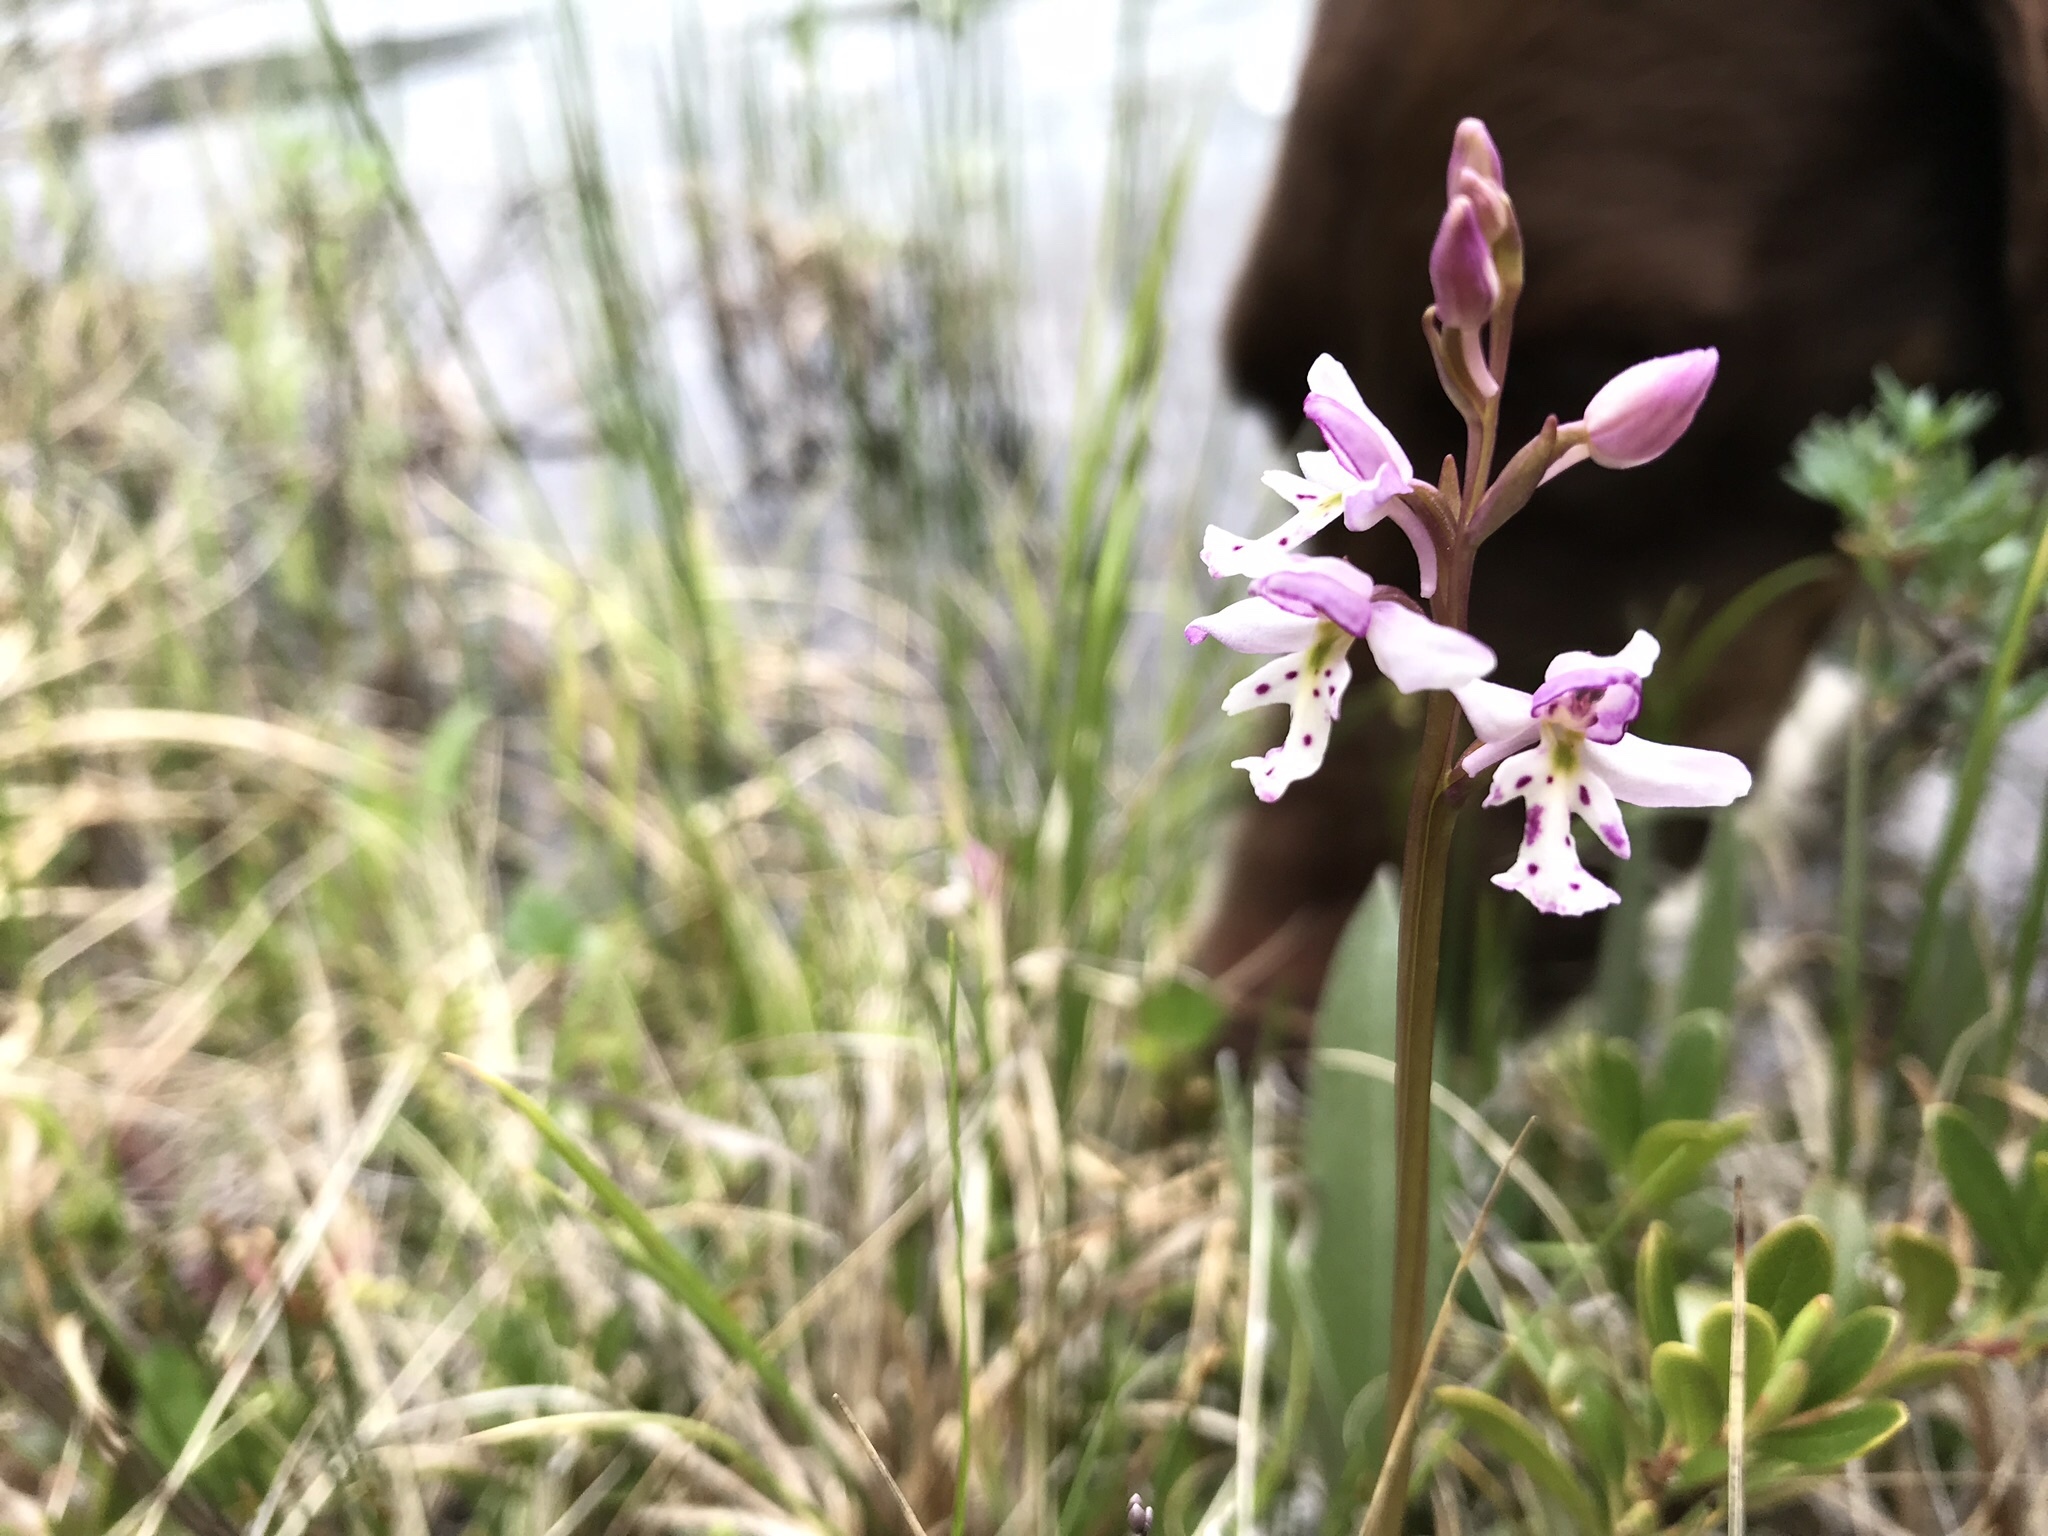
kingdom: Plantae
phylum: Tracheophyta
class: Liliopsida
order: Asparagales
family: Orchidaceae
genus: Galearis
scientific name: Galearis rotundifolia
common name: One-leaved orchis
